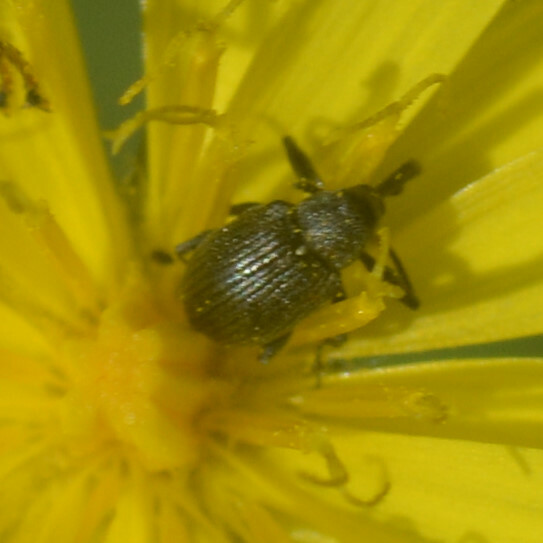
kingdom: Animalia
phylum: Arthropoda
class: Insecta
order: Coleoptera
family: Curculionidae
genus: Anthonomus
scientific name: Anthonomus rubi
